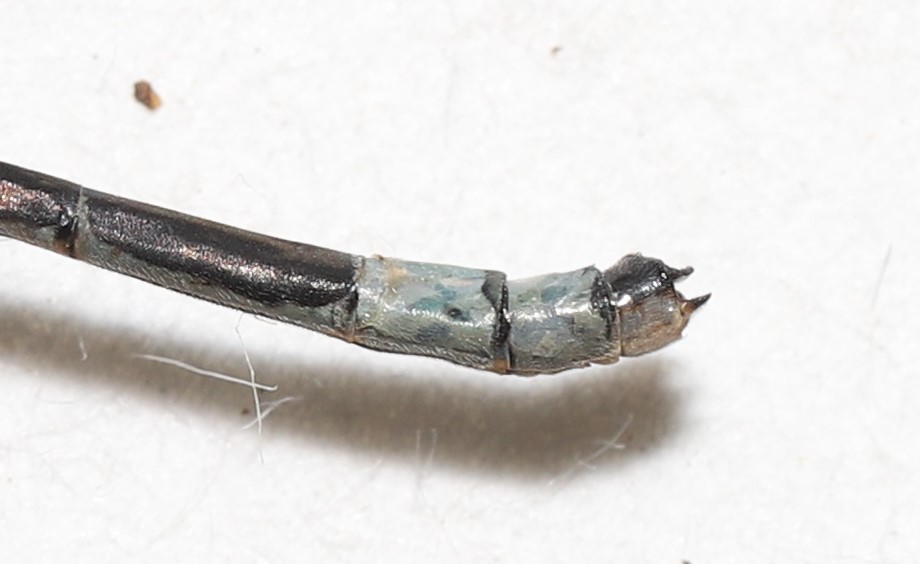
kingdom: Animalia
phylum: Arthropoda
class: Insecta
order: Odonata
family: Coenagrionidae
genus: Enallagma
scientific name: Enallagma hageni
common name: Hagen's bluet
